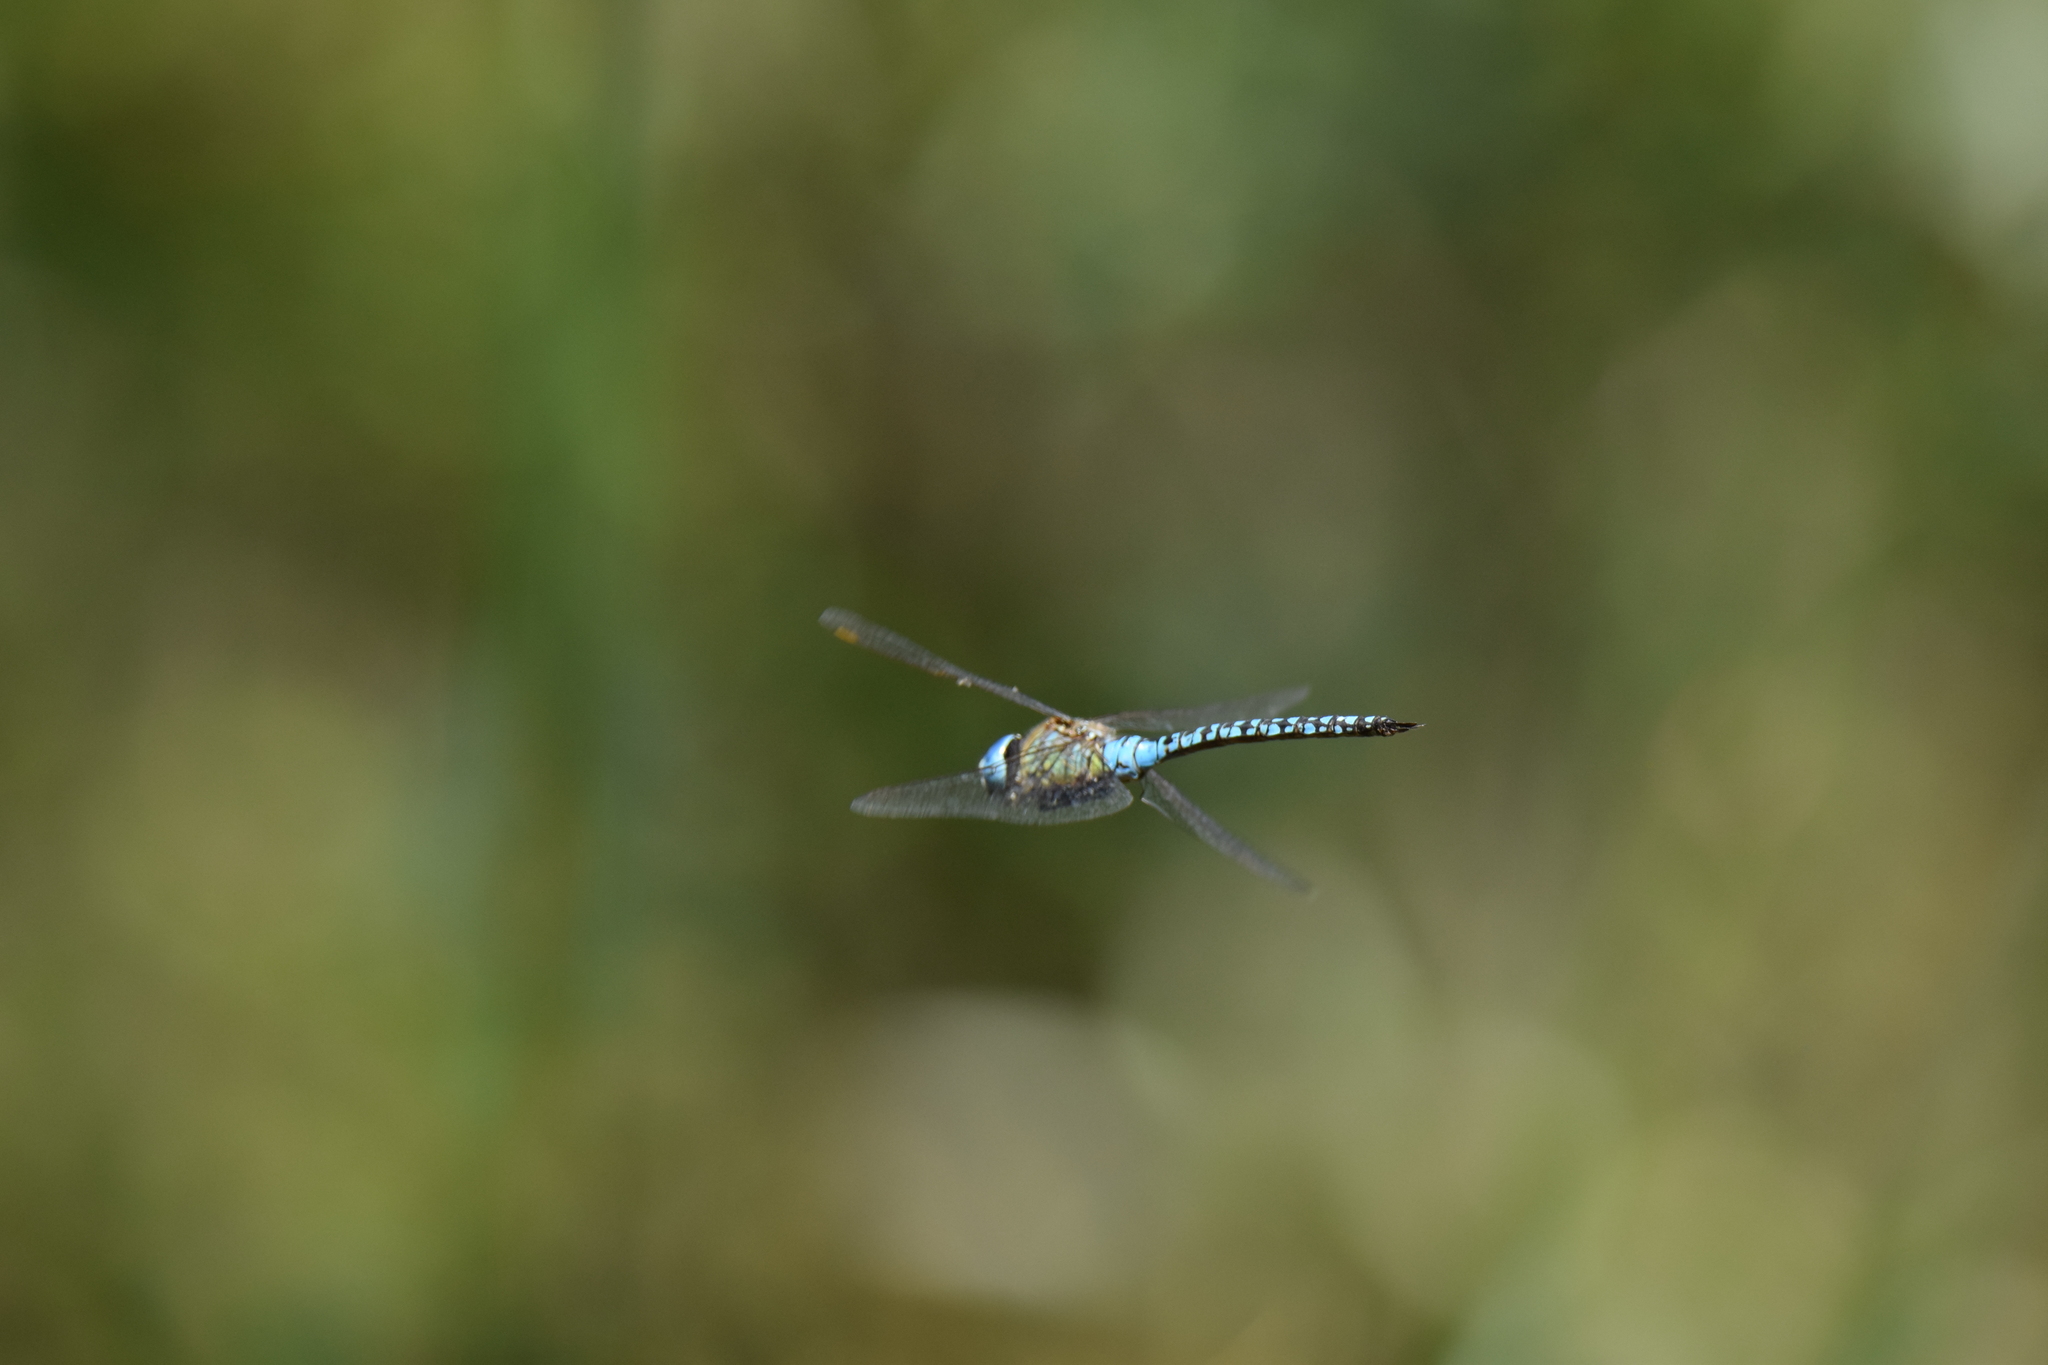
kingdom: Animalia
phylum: Arthropoda
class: Insecta
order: Odonata
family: Aeshnidae
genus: Aeshna
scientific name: Aeshna affinis
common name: Southern migrant hawker
